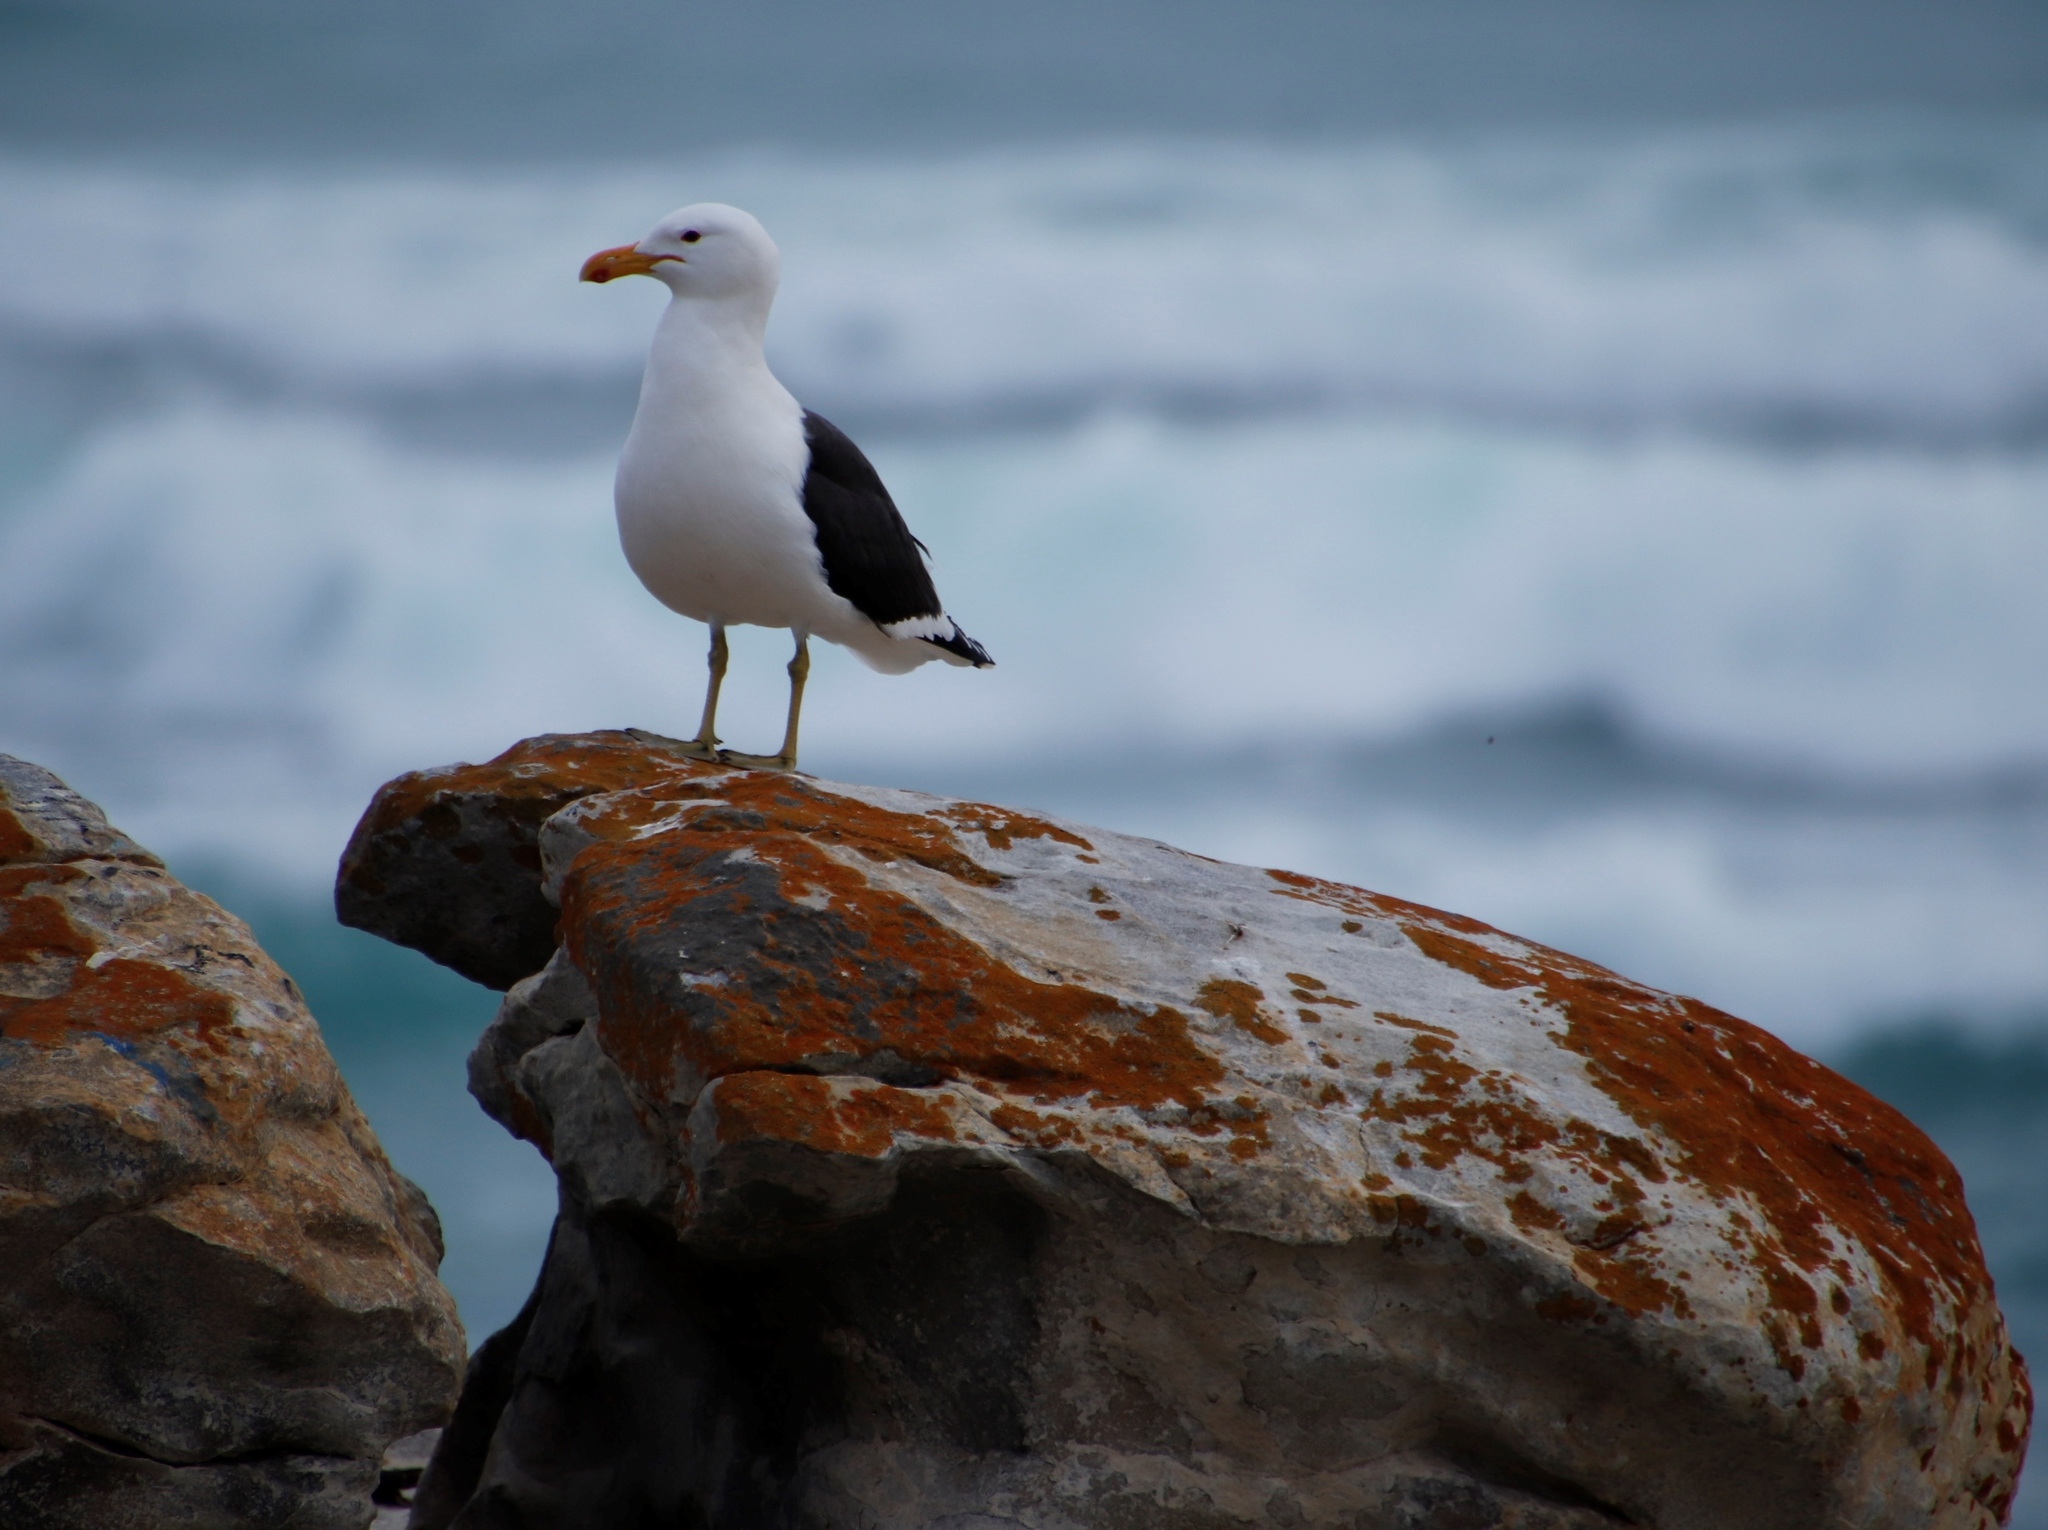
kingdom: Animalia
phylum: Chordata
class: Aves
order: Charadriiformes
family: Laridae
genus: Larus
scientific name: Larus dominicanus
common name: Kelp gull
